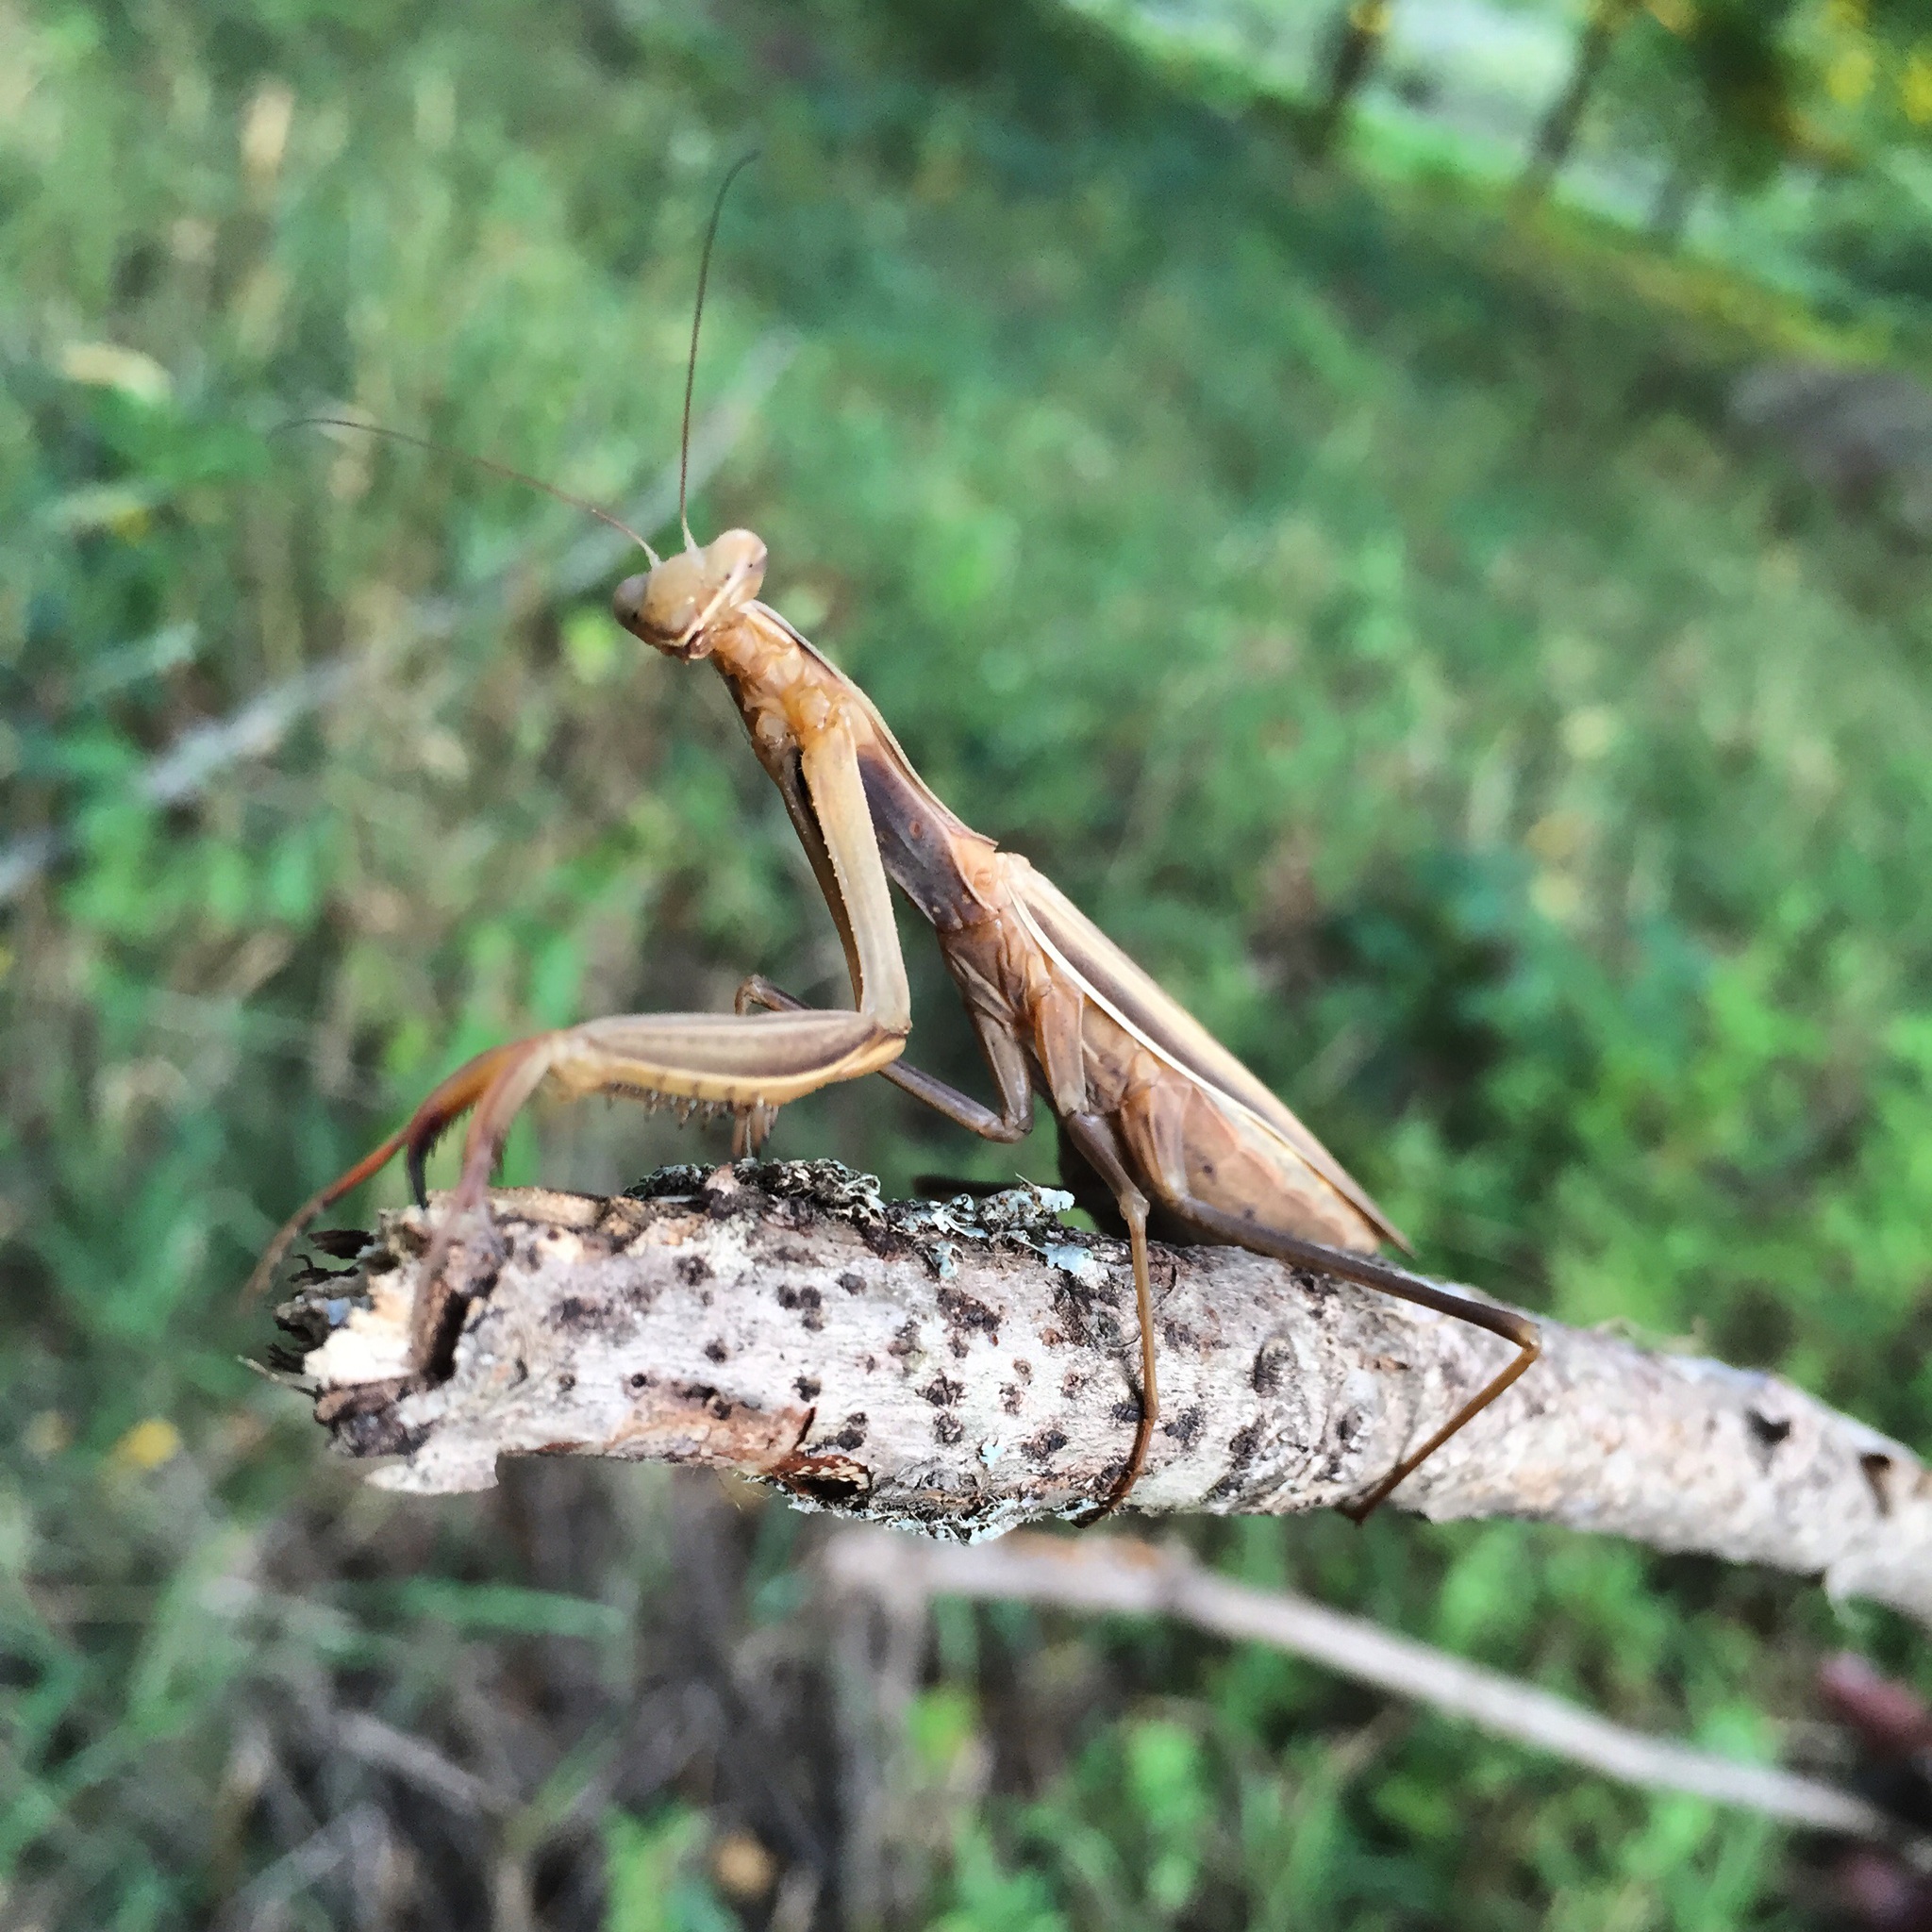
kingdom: Animalia
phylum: Arthropoda
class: Insecta
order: Mantodea
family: Mantidae
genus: Mantis
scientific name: Mantis religiosa
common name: Praying mantis
